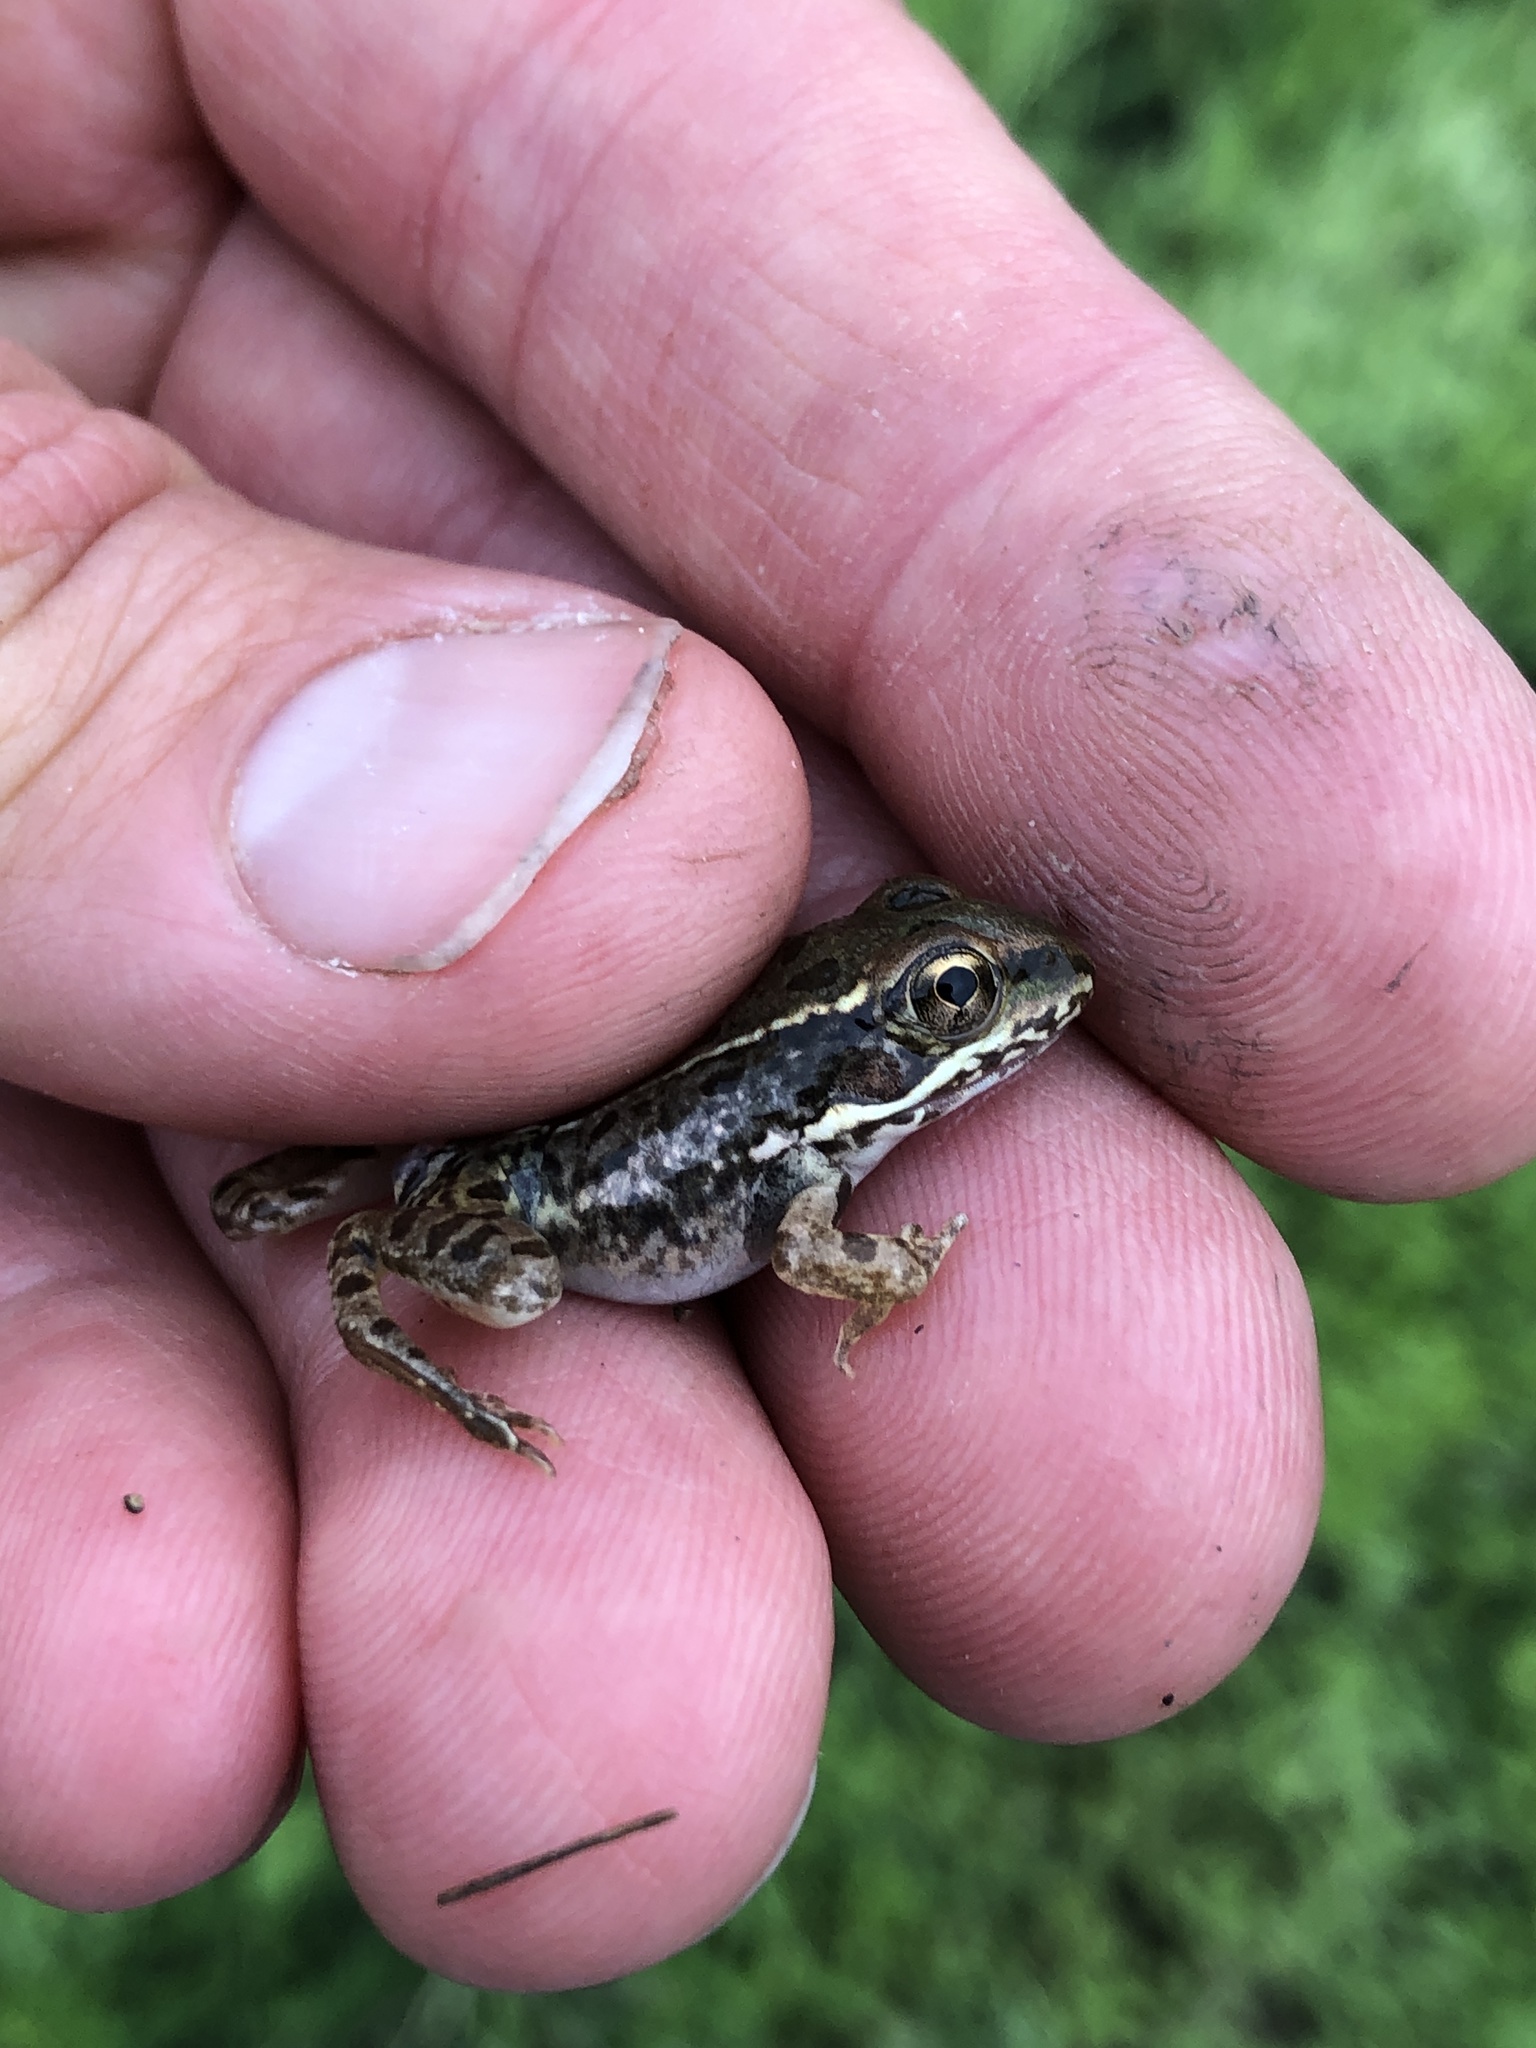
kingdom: Animalia
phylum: Chordata
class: Amphibia
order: Anura
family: Ranidae
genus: Lithobates
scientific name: Lithobates berlandieri
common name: Rio grande leopard frog
